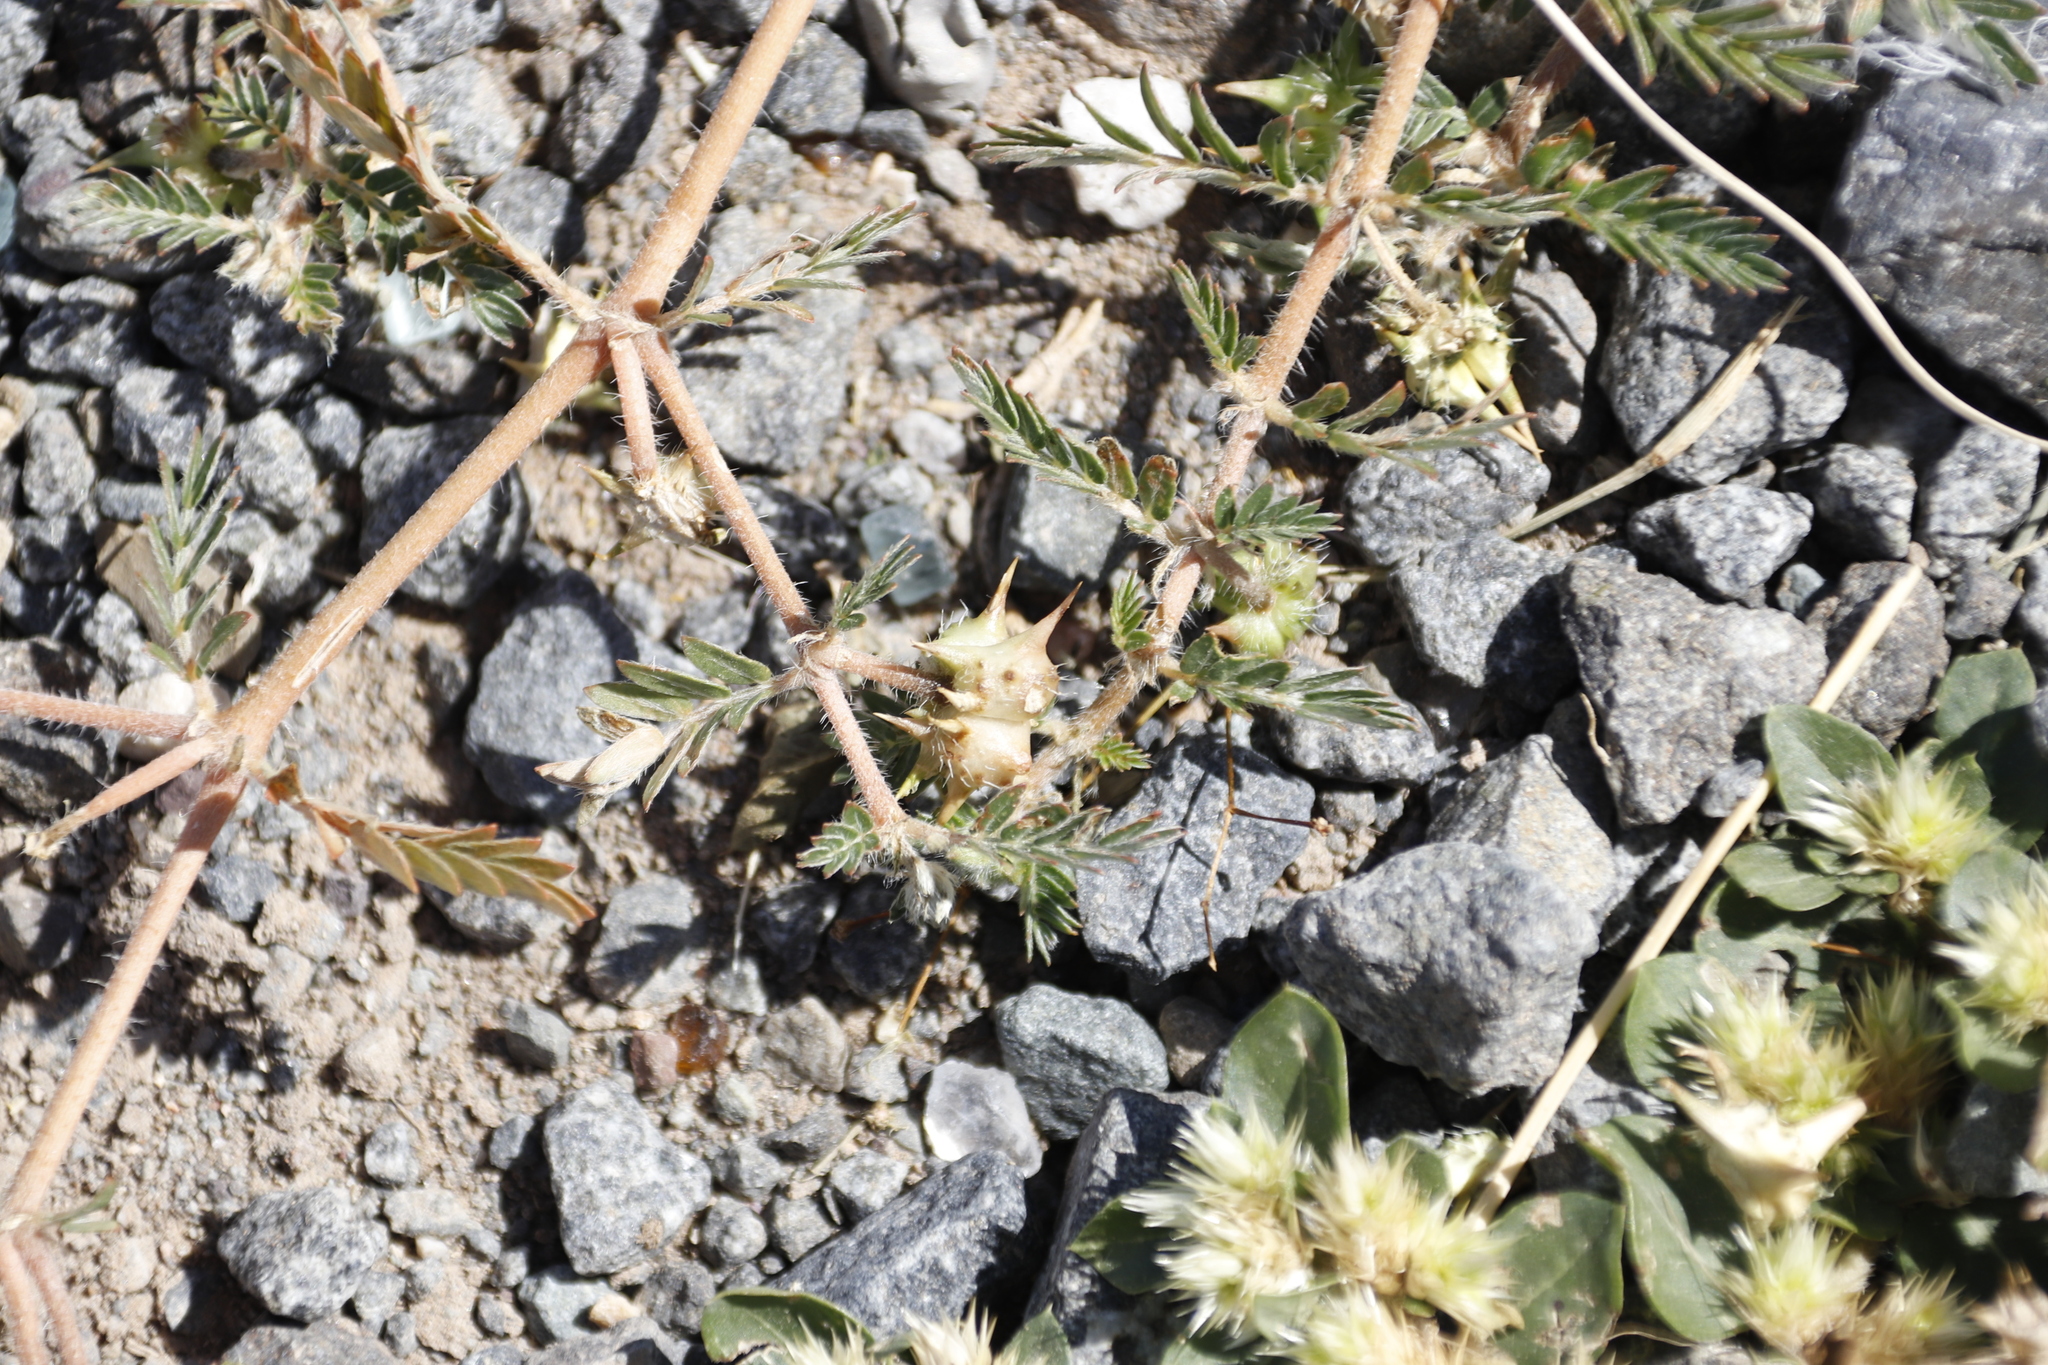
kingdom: Plantae
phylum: Tracheophyta
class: Magnoliopsida
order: Zygophyllales
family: Zygophyllaceae
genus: Tribulus
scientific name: Tribulus terrestris
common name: Puncturevine
